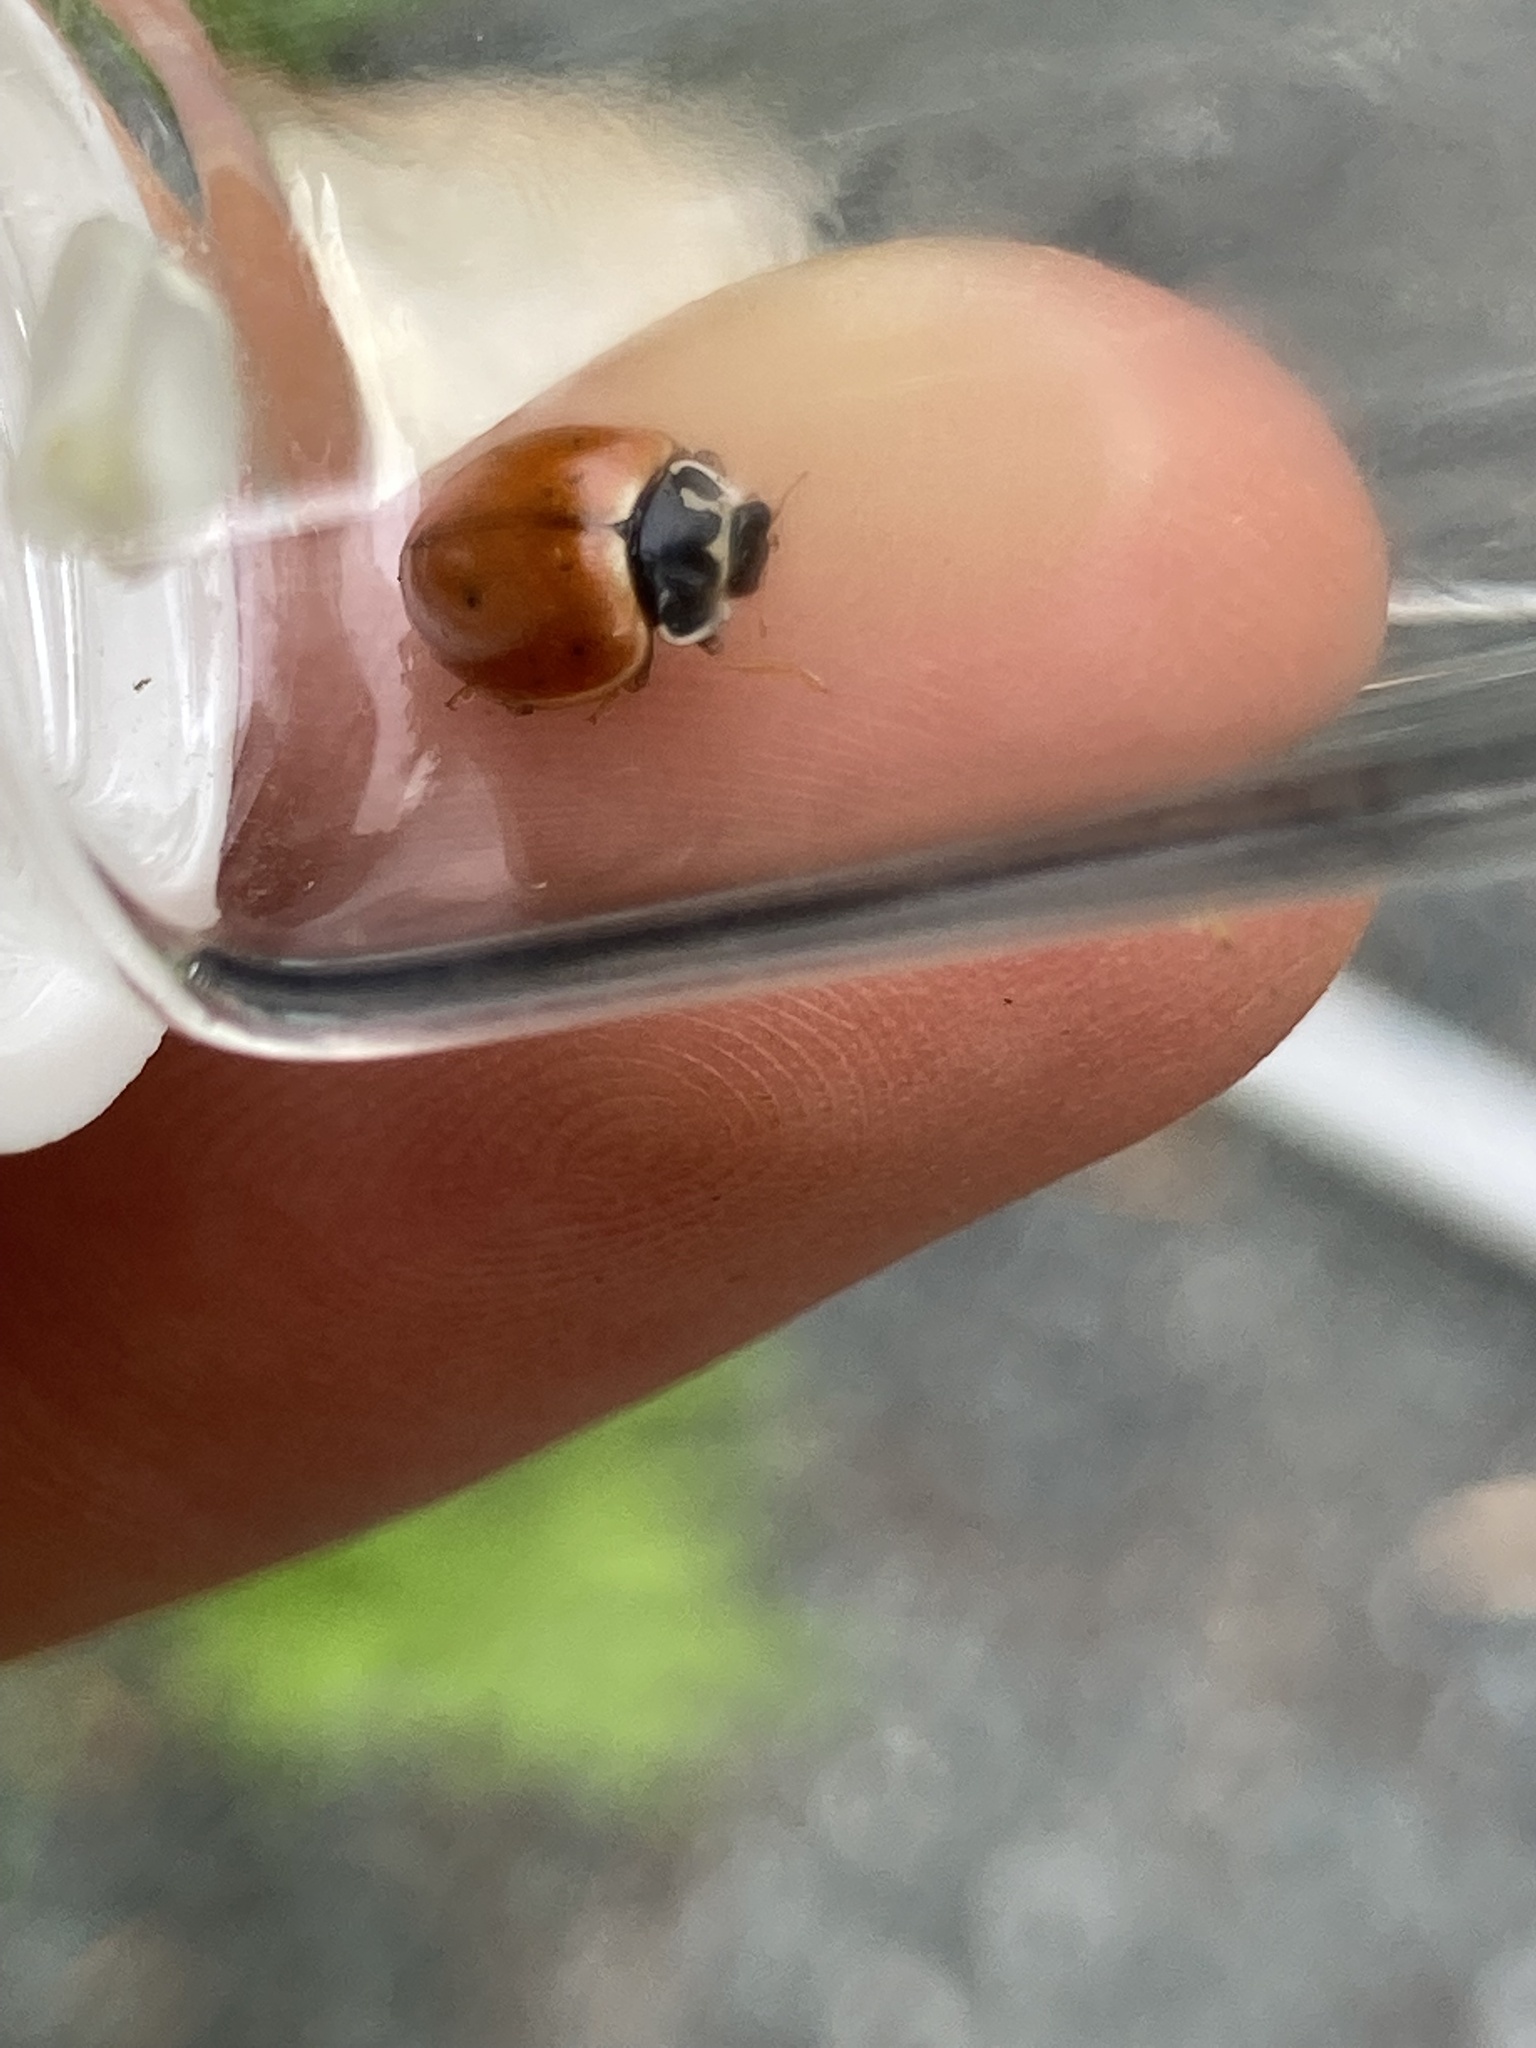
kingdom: Animalia
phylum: Arthropoda
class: Insecta
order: Coleoptera
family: Coccinellidae
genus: Cycloneda
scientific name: Cycloneda munda
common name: Polished lady beetle
